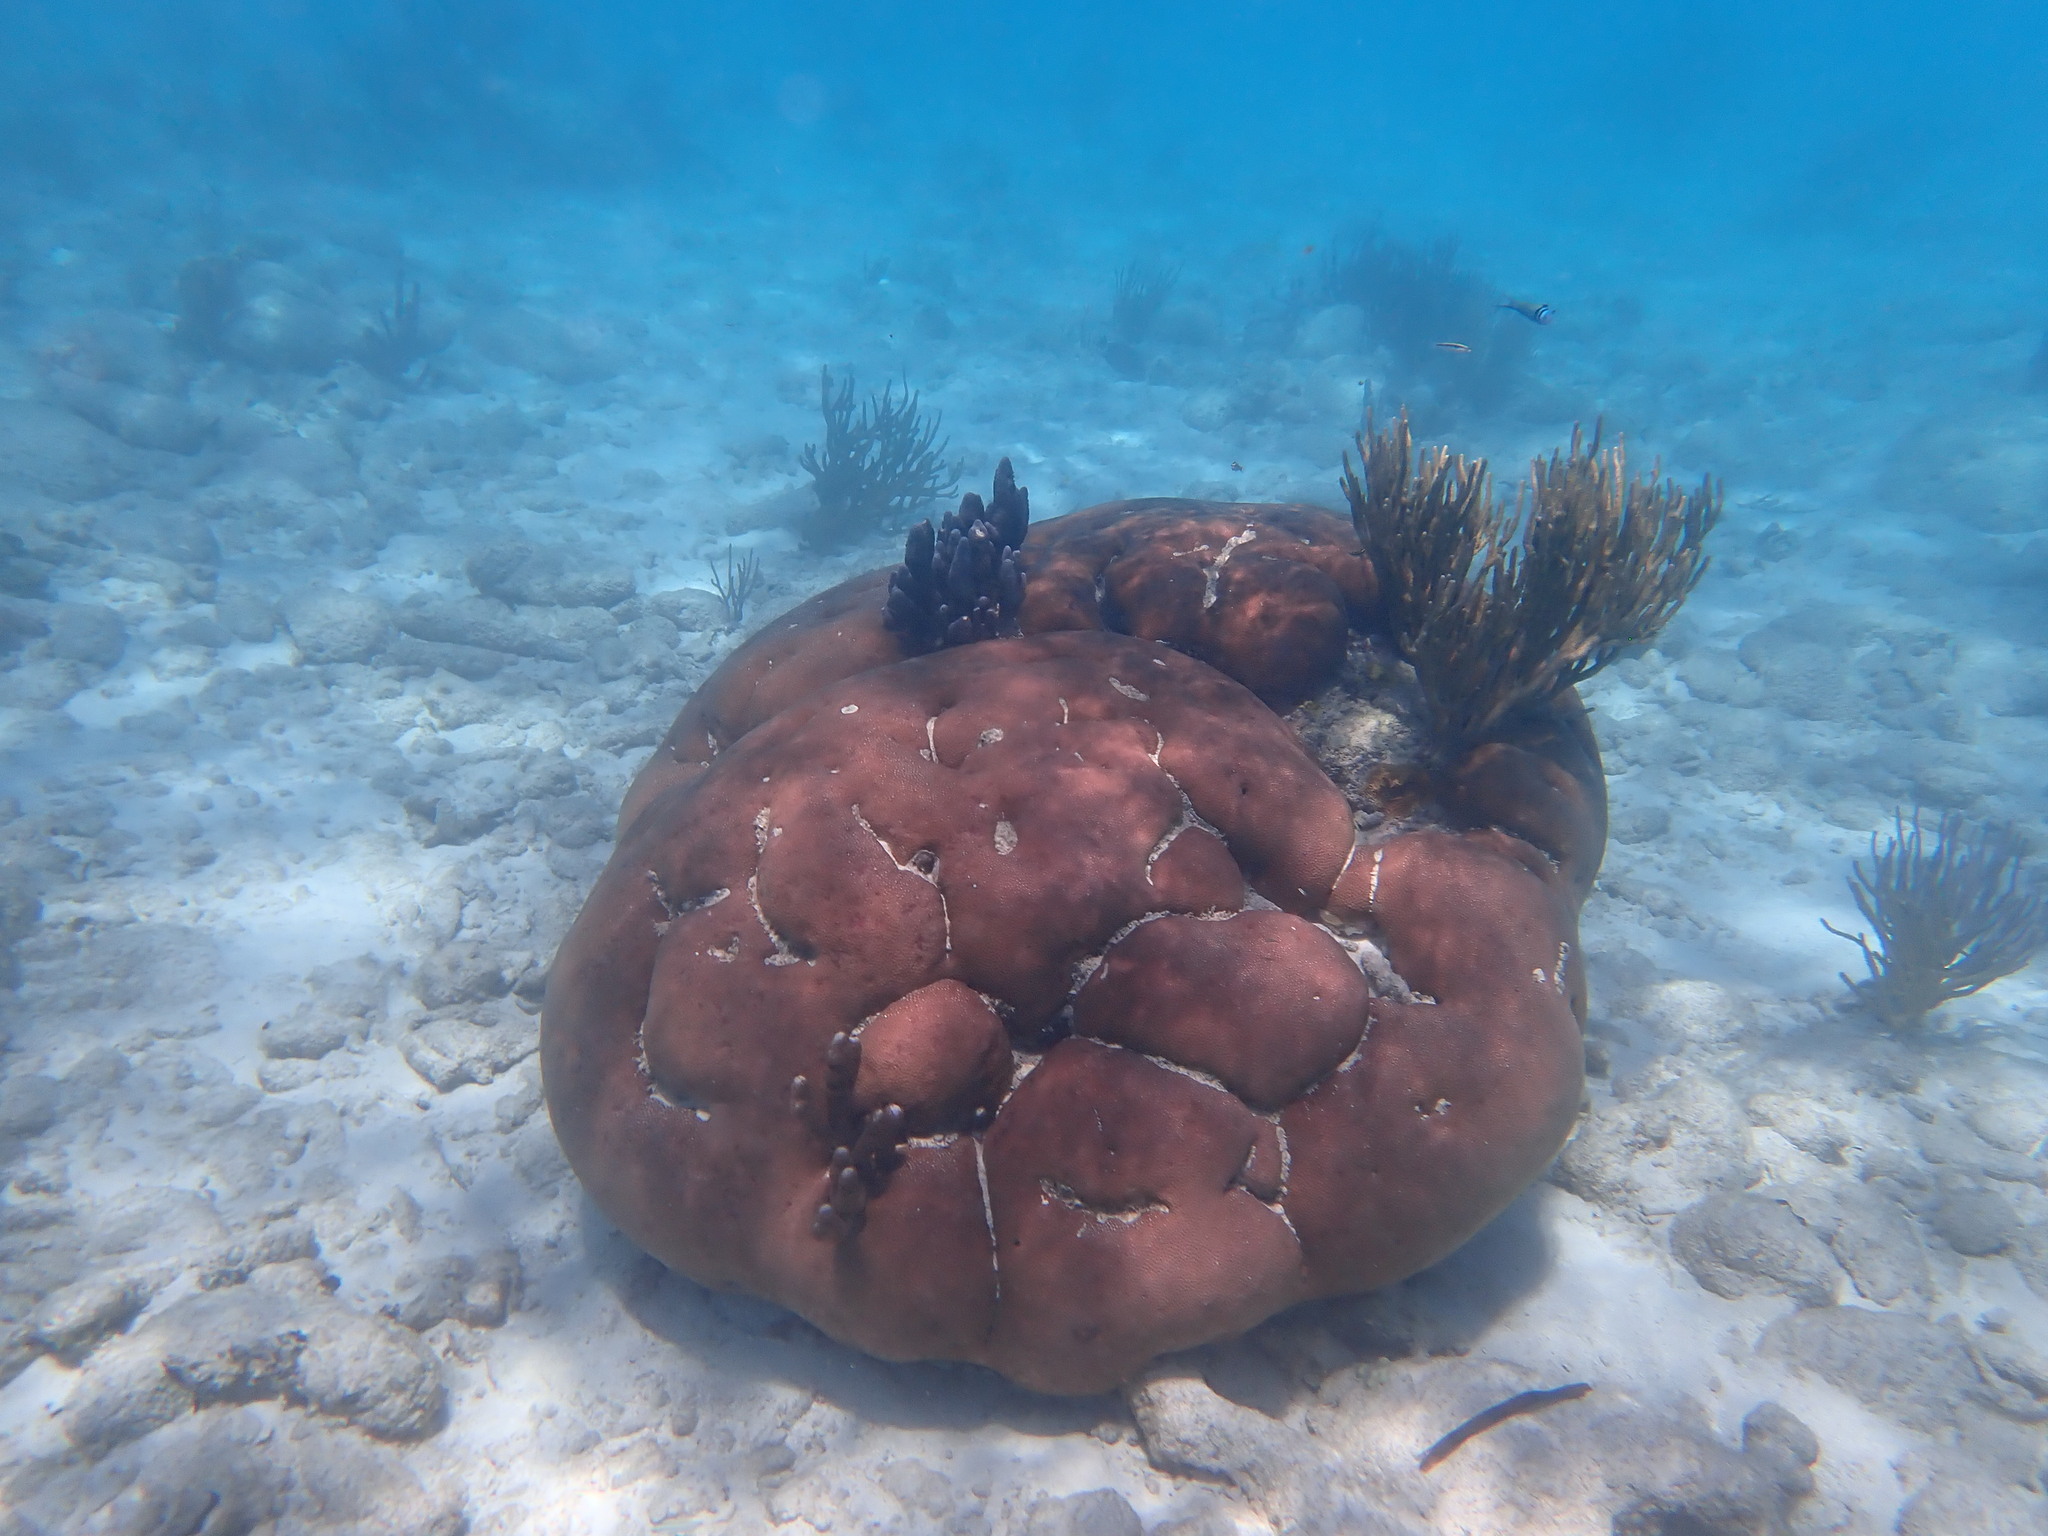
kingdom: Animalia
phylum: Cnidaria
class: Anthozoa
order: Scleractinia
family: Rhizangiidae
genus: Siderastrea
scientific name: Siderastrea siderea
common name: Massive starlet coral
